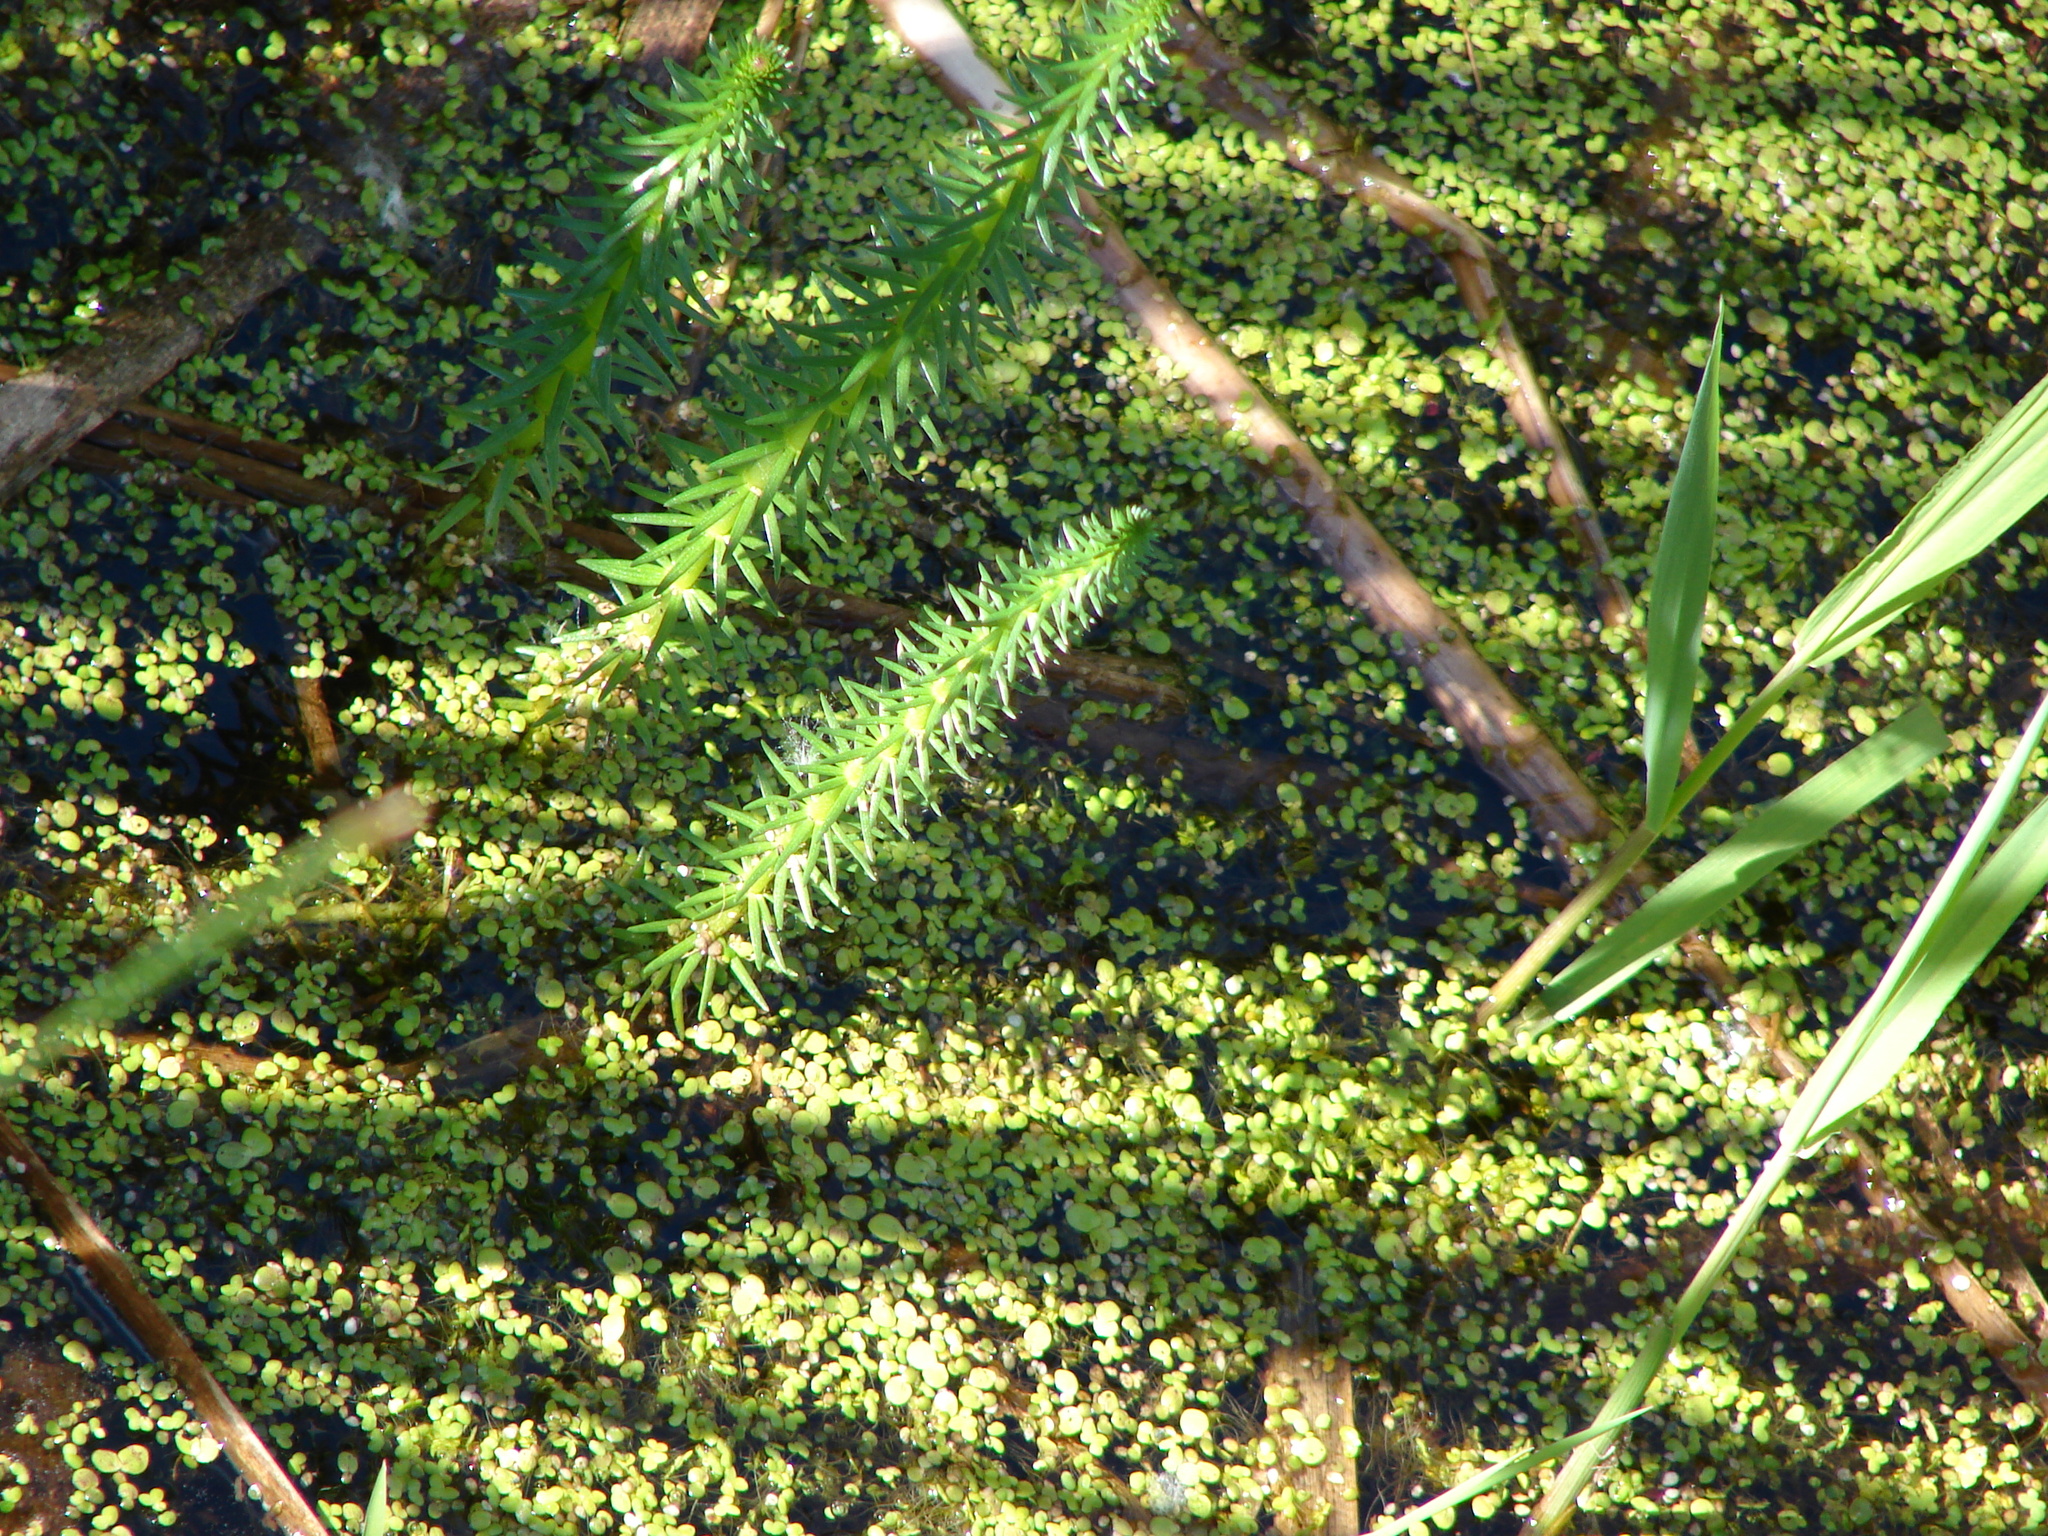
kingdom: Plantae
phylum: Tracheophyta
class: Magnoliopsida
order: Lamiales
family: Plantaginaceae
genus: Hippuris
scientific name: Hippuris vulgaris
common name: Mare's-tail
